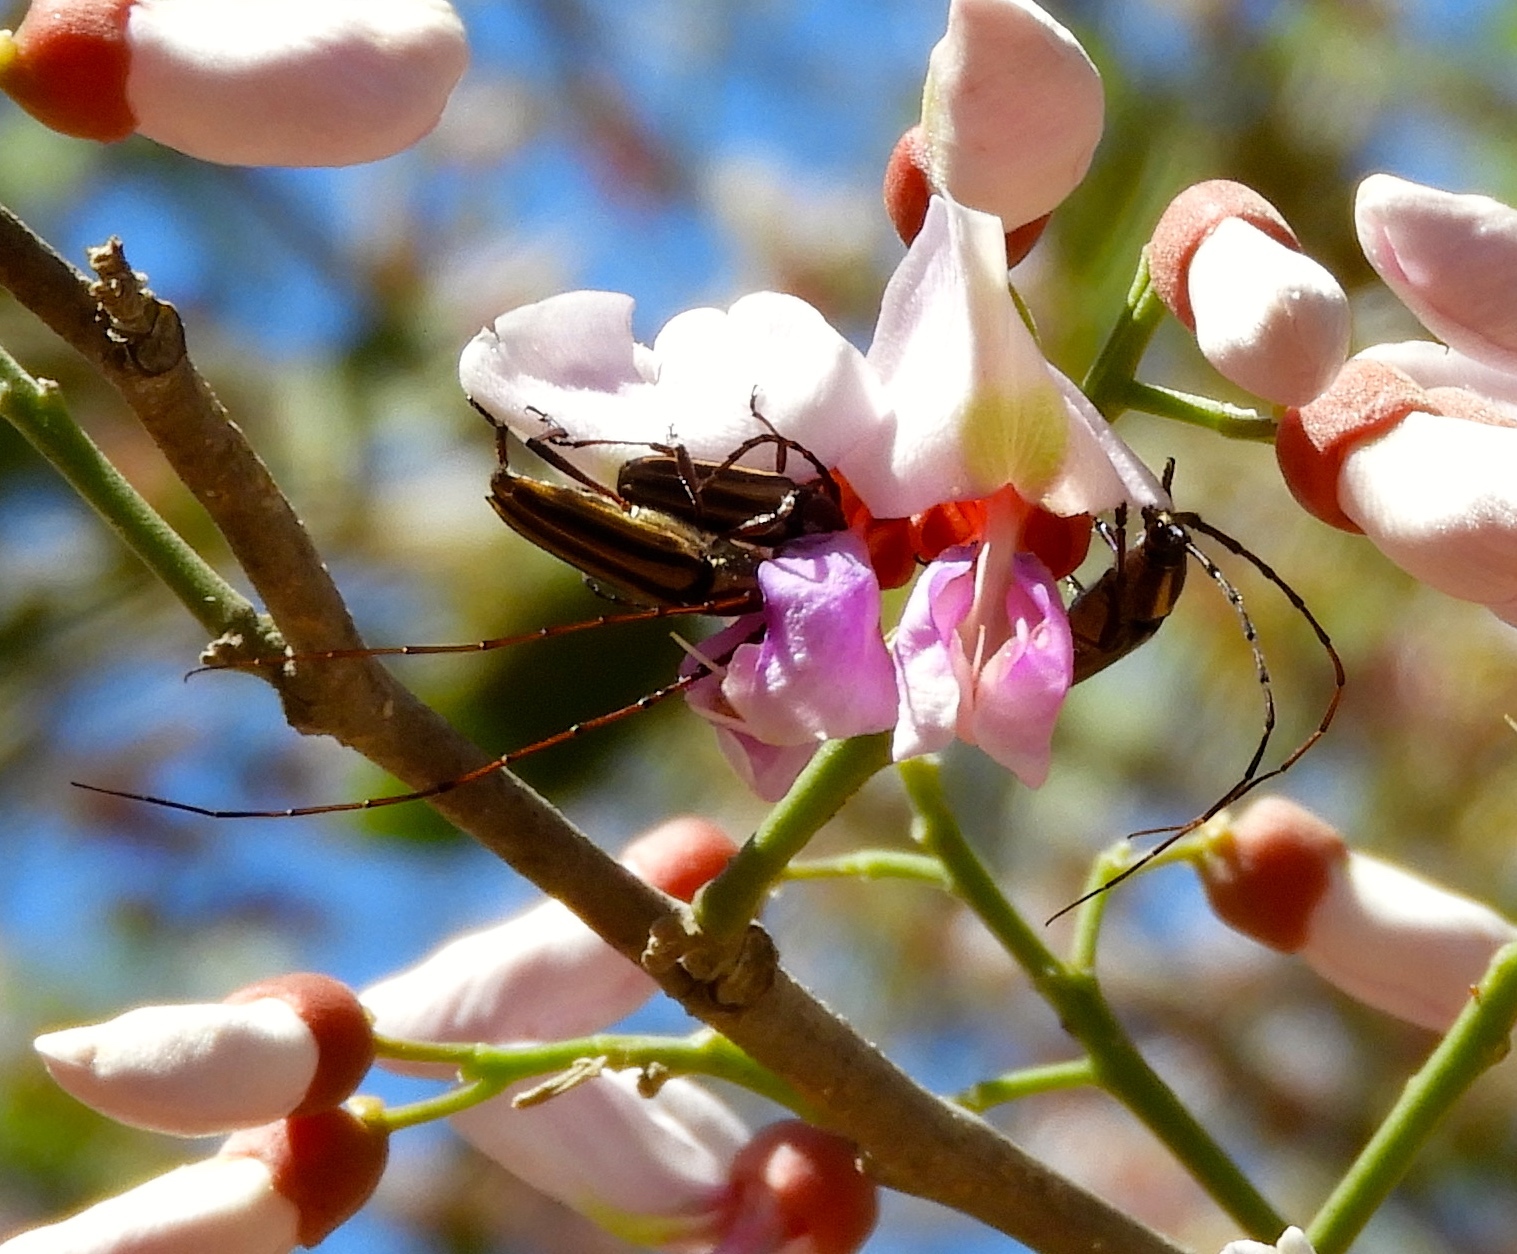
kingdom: Animalia
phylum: Arthropoda
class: Insecta
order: Coleoptera
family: Cerambycidae
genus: Sphaenothecus
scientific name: Sphaenothecus maccartyi
